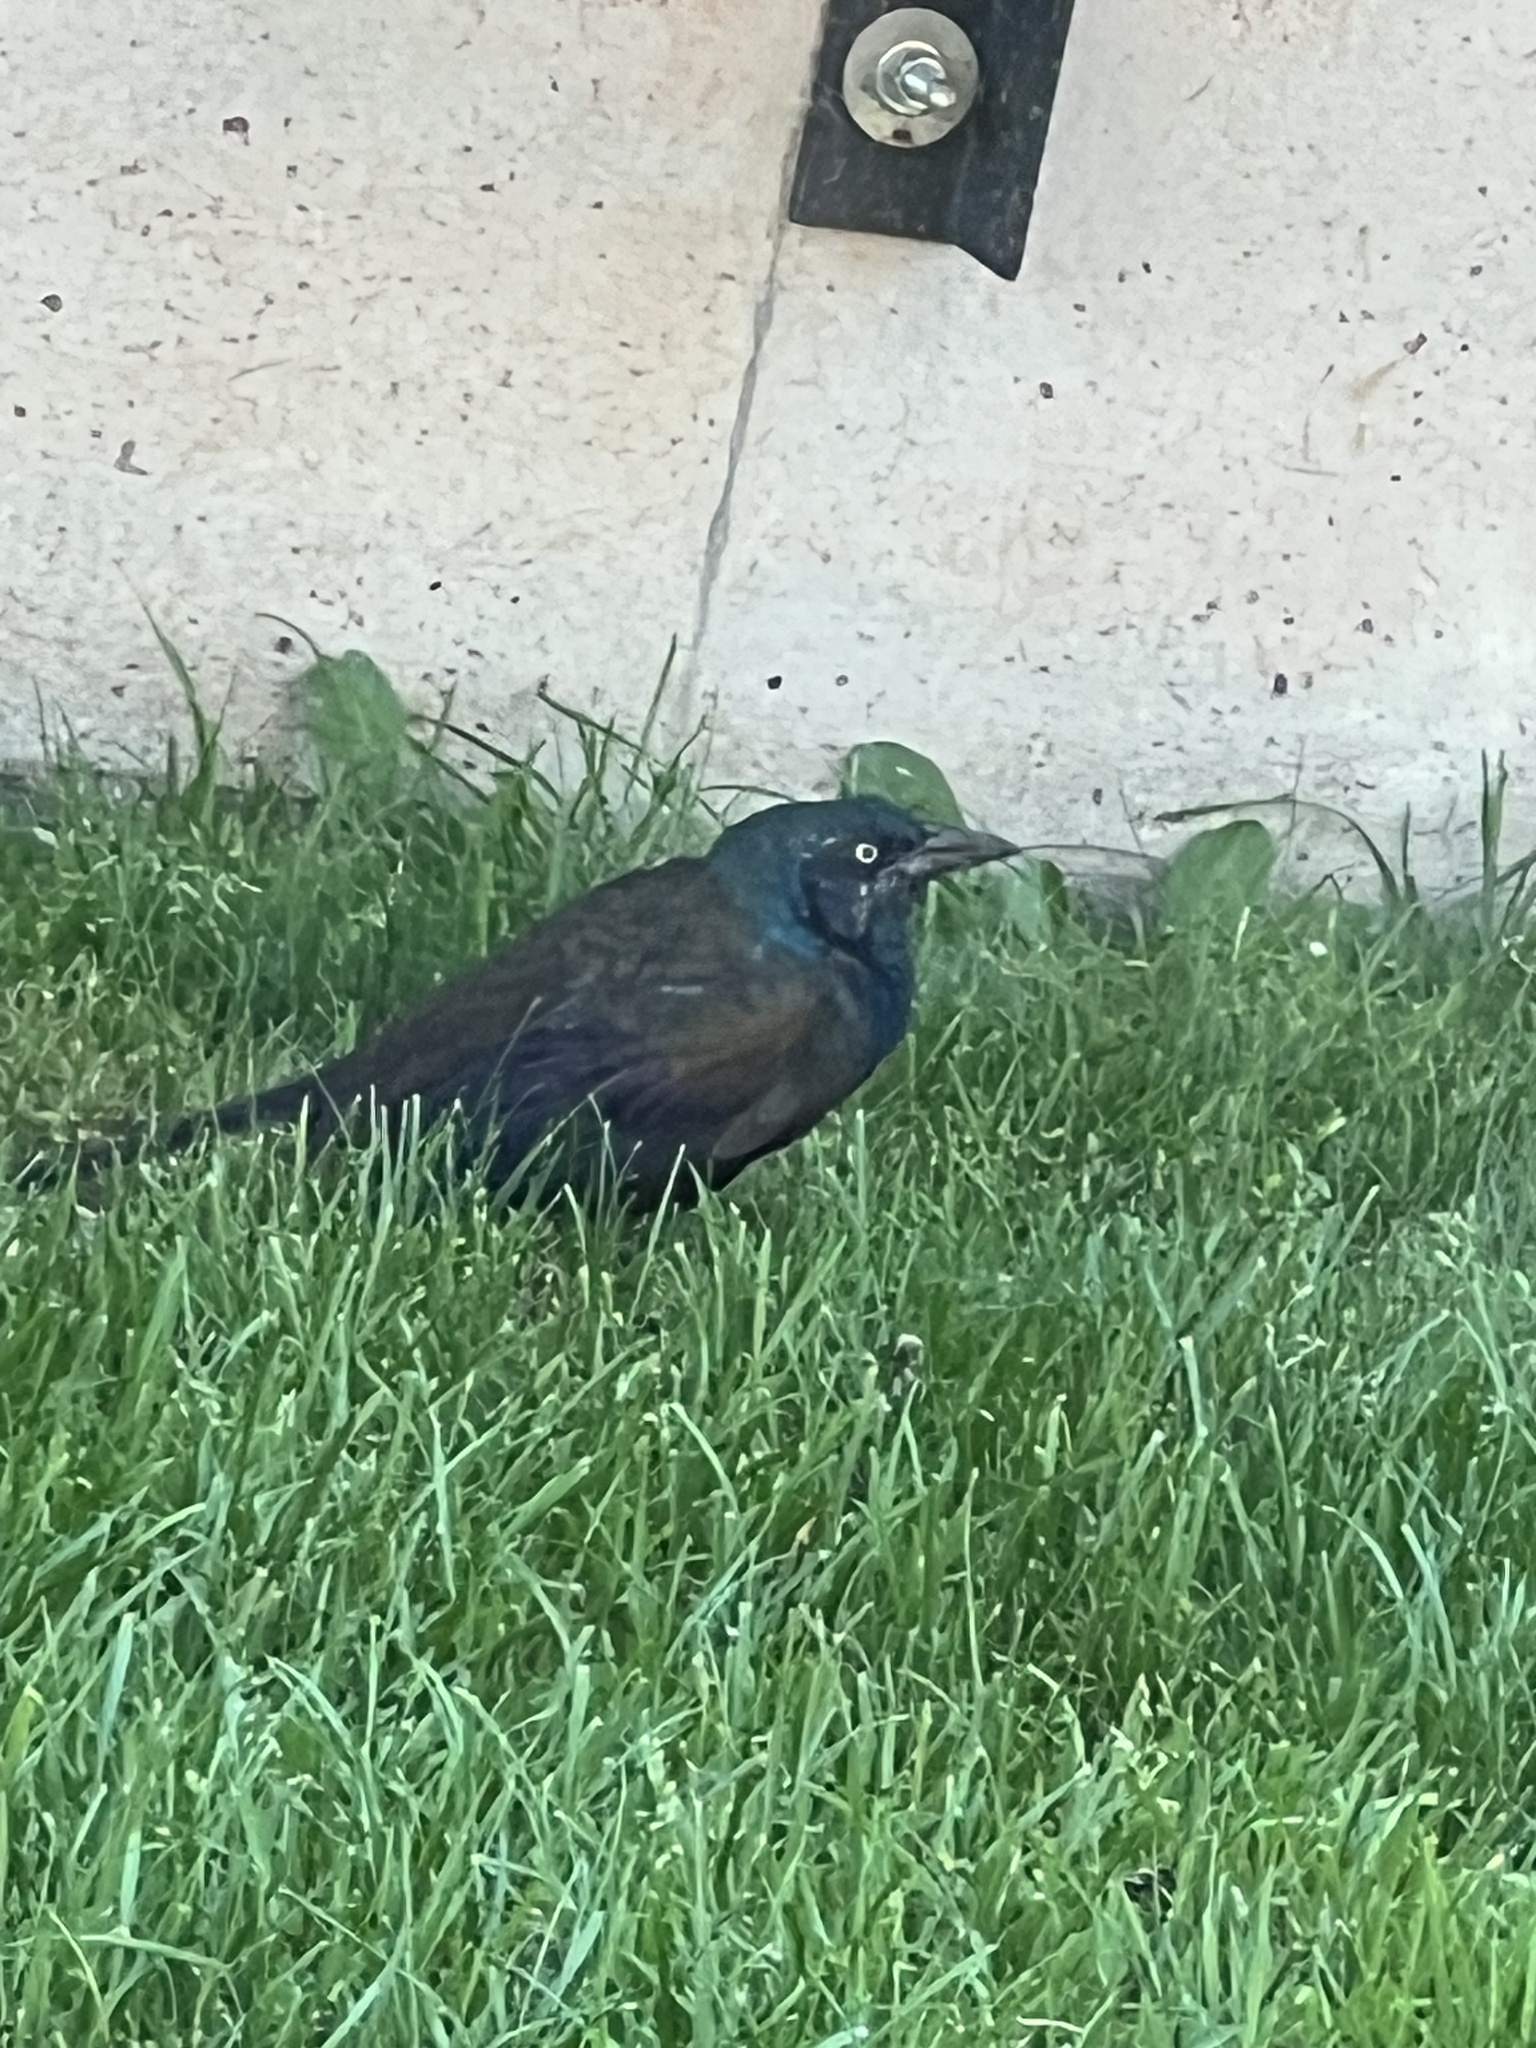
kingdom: Animalia
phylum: Chordata
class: Aves
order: Passeriformes
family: Icteridae
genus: Quiscalus
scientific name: Quiscalus quiscula
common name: Common grackle
